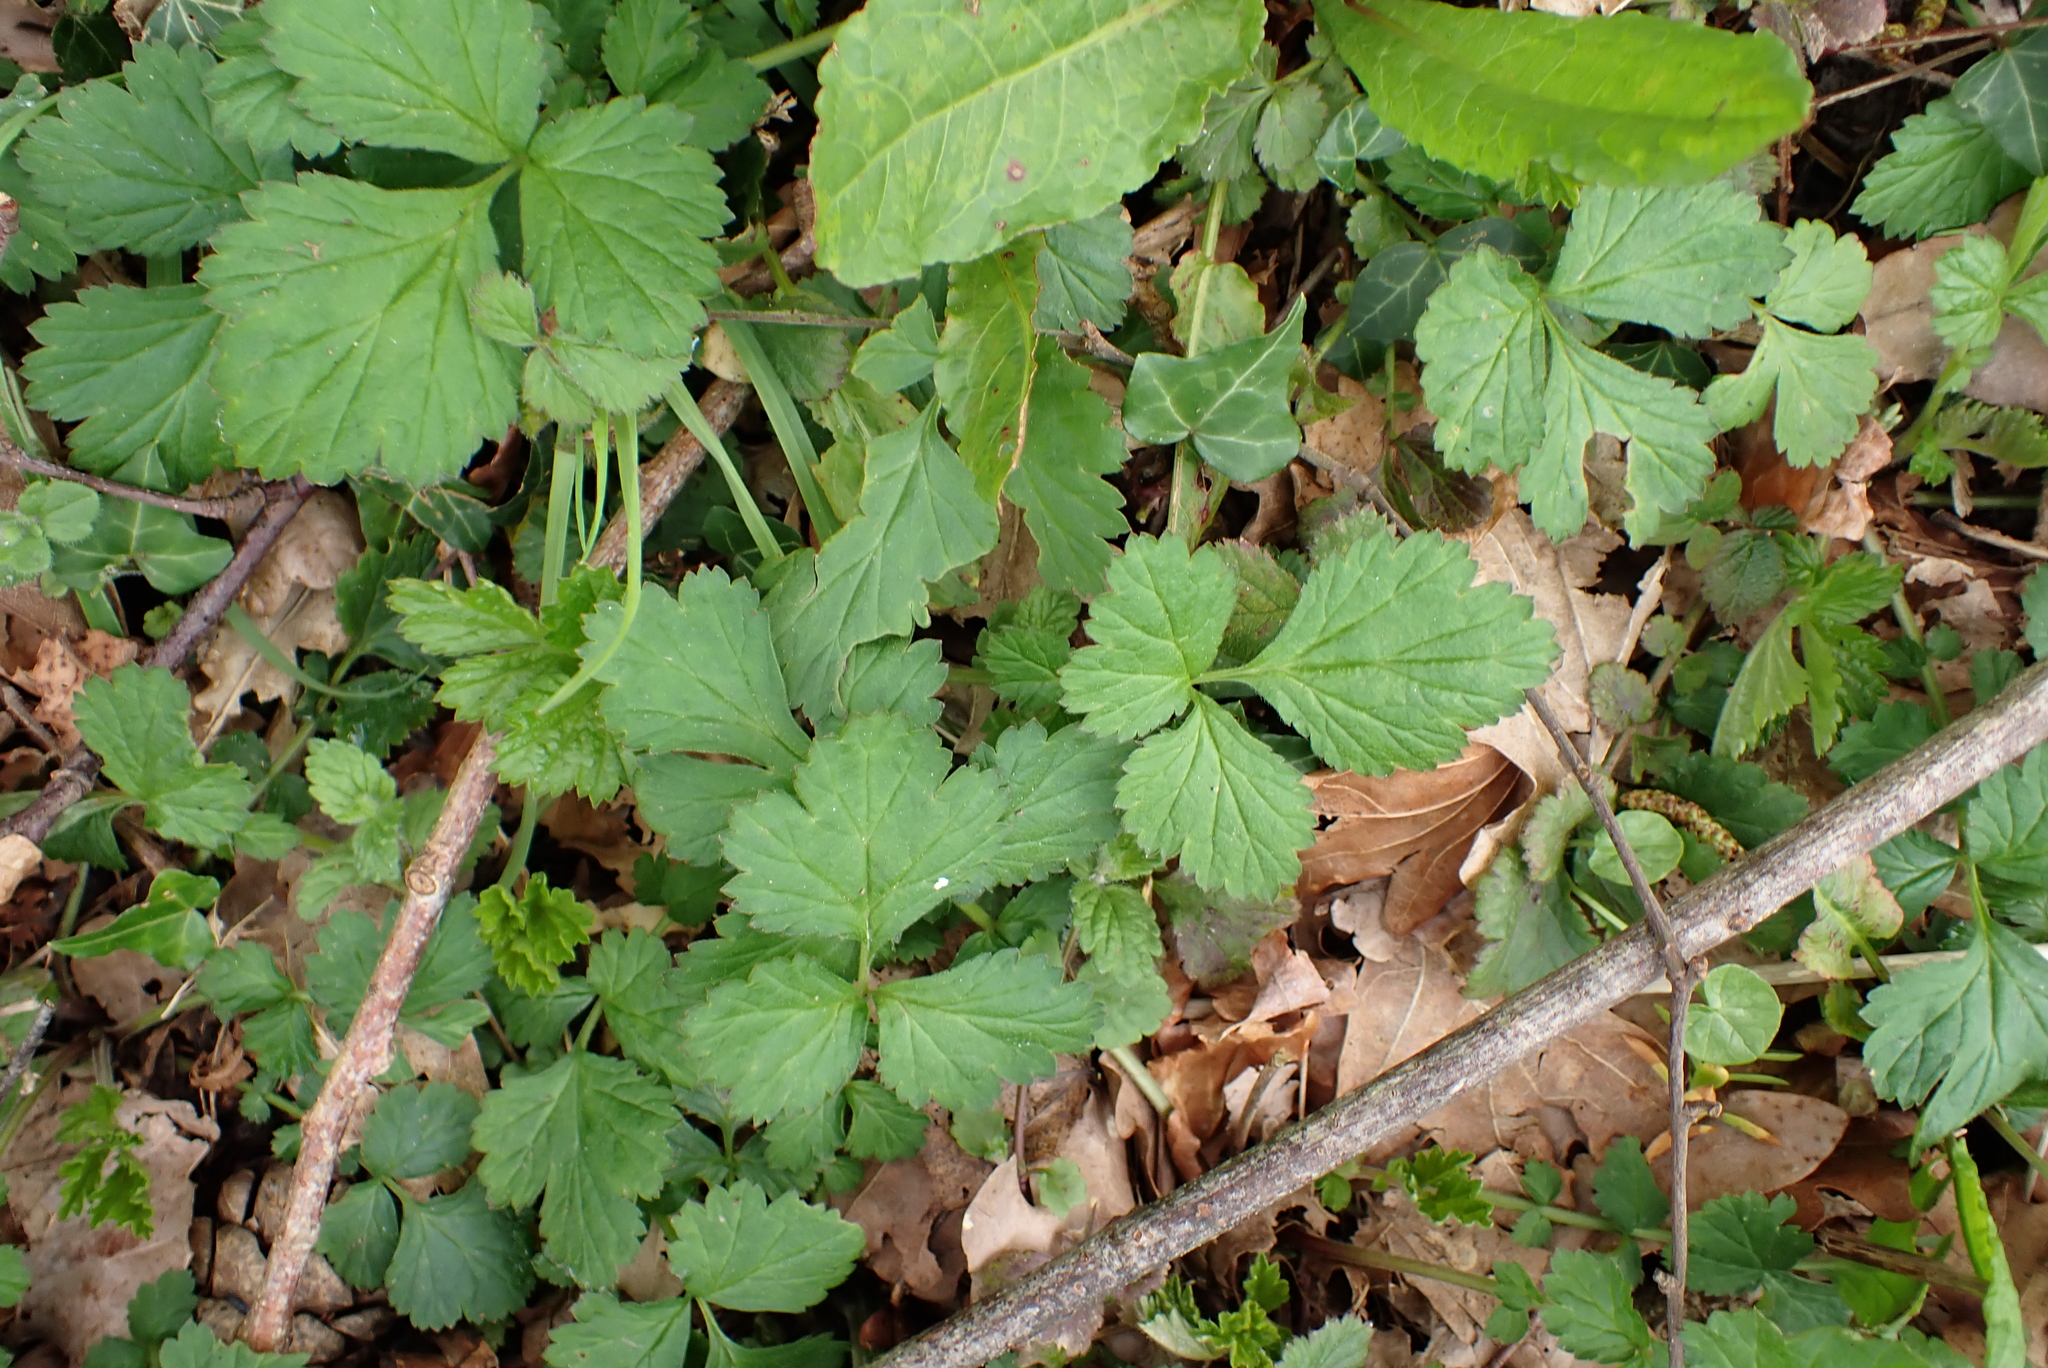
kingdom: Plantae
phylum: Tracheophyta
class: Magnoliopsida
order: Rosales
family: Rosaceae
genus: Geum
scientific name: Geum urbanum
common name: Wood avens
